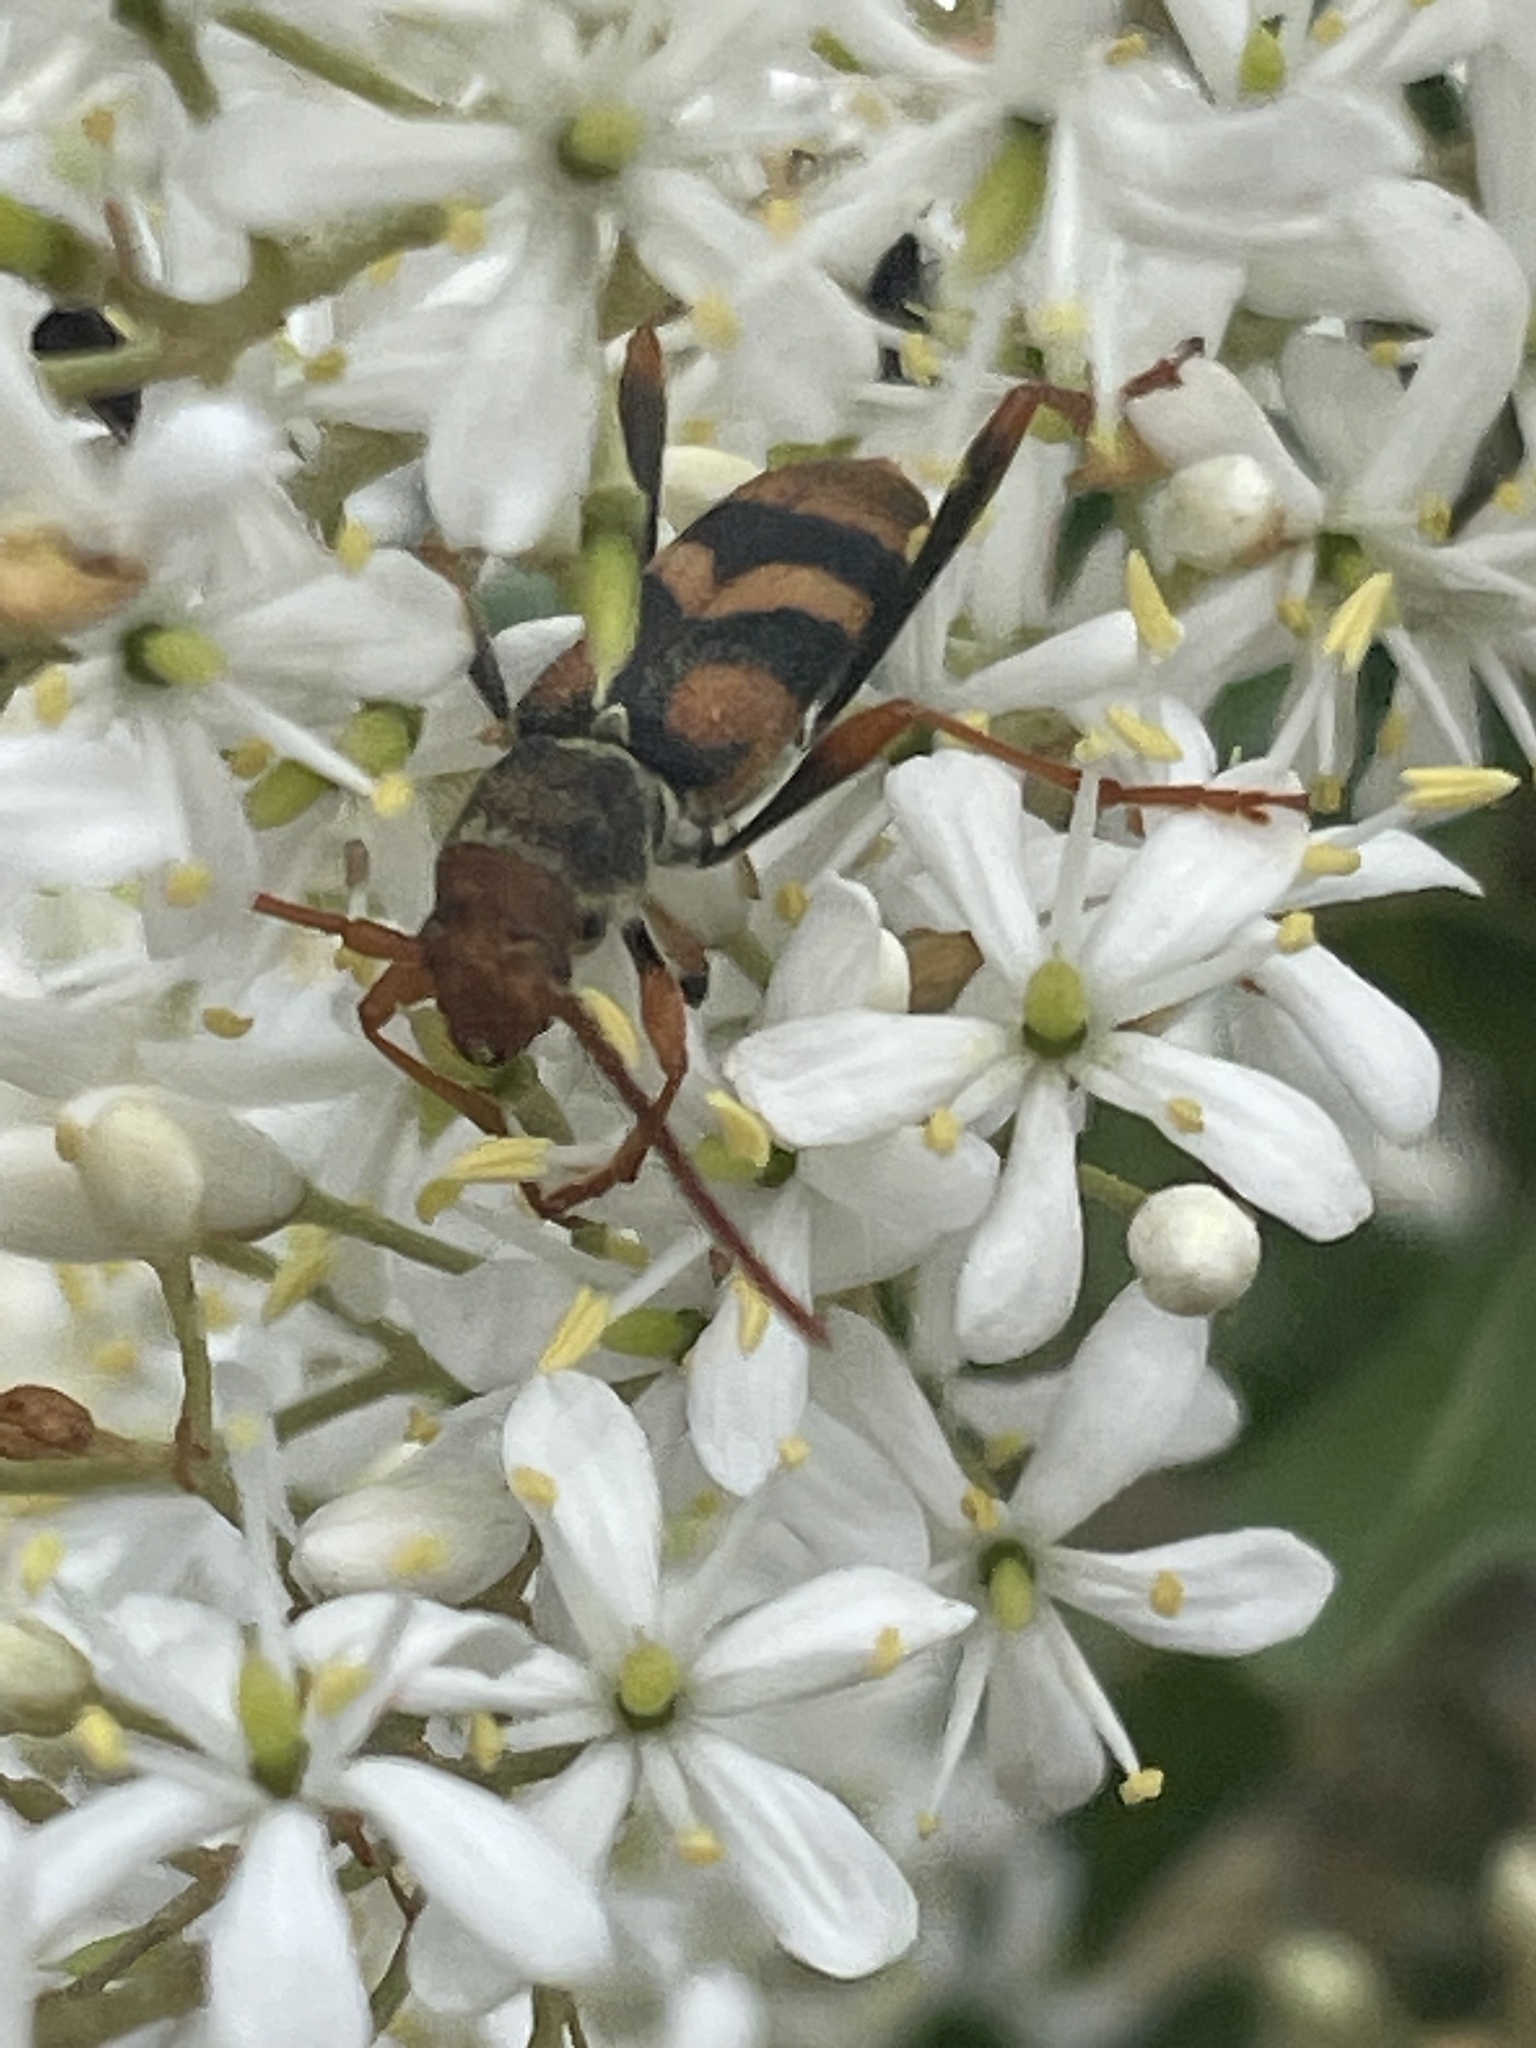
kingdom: Animalia
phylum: Arthropoda
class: Insecta
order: Coleoptera
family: Cerambycidae
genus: Aridaeus
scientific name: Aridaeus thoracicus
